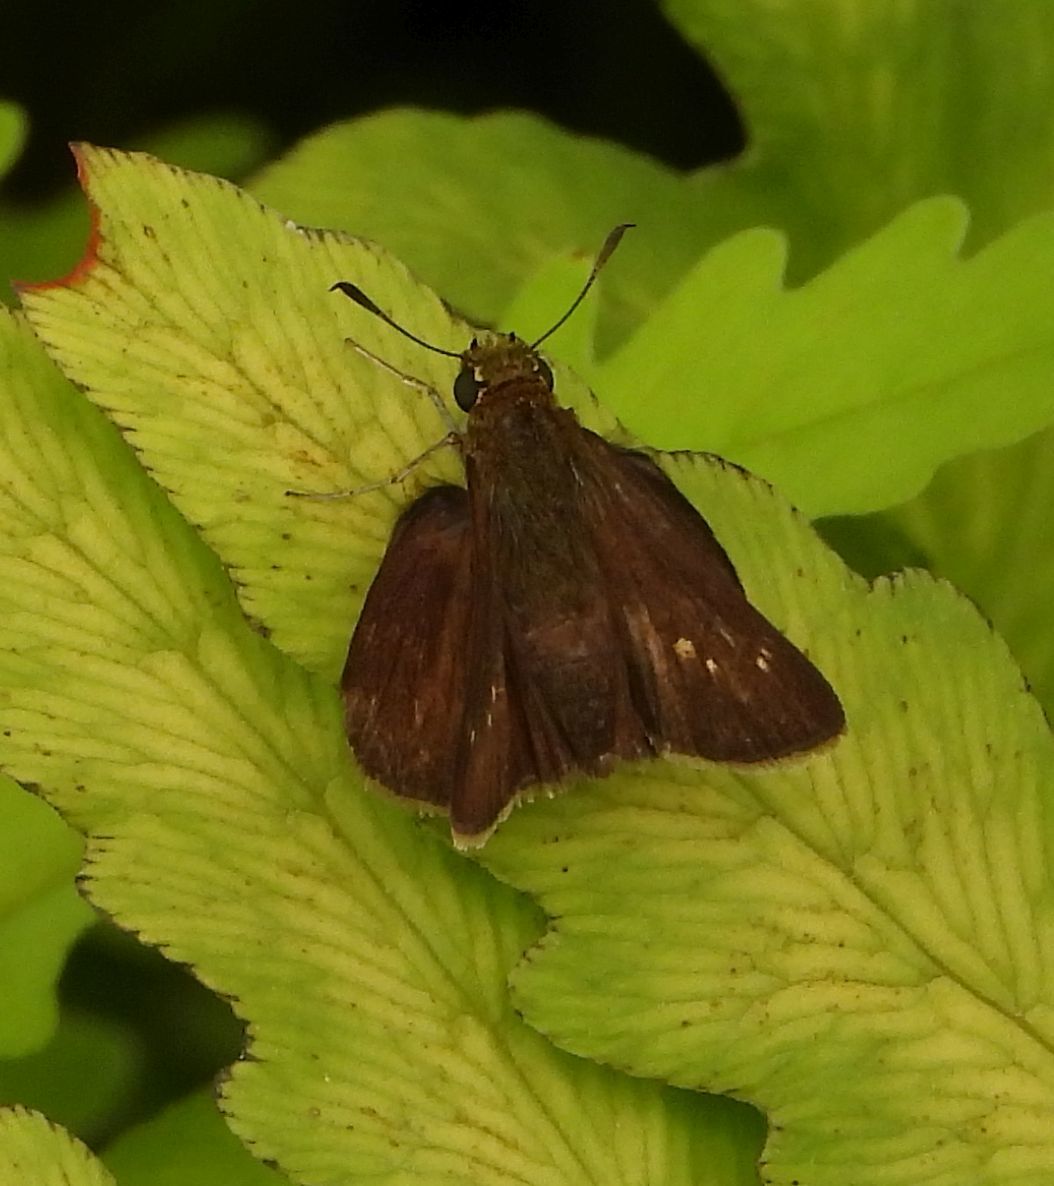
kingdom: Animalia
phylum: Arthropoda
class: Insecta
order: Lepidoptera
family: Hesperiidae
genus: Euphyes
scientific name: Euphyes vestris
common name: Dun skipper
